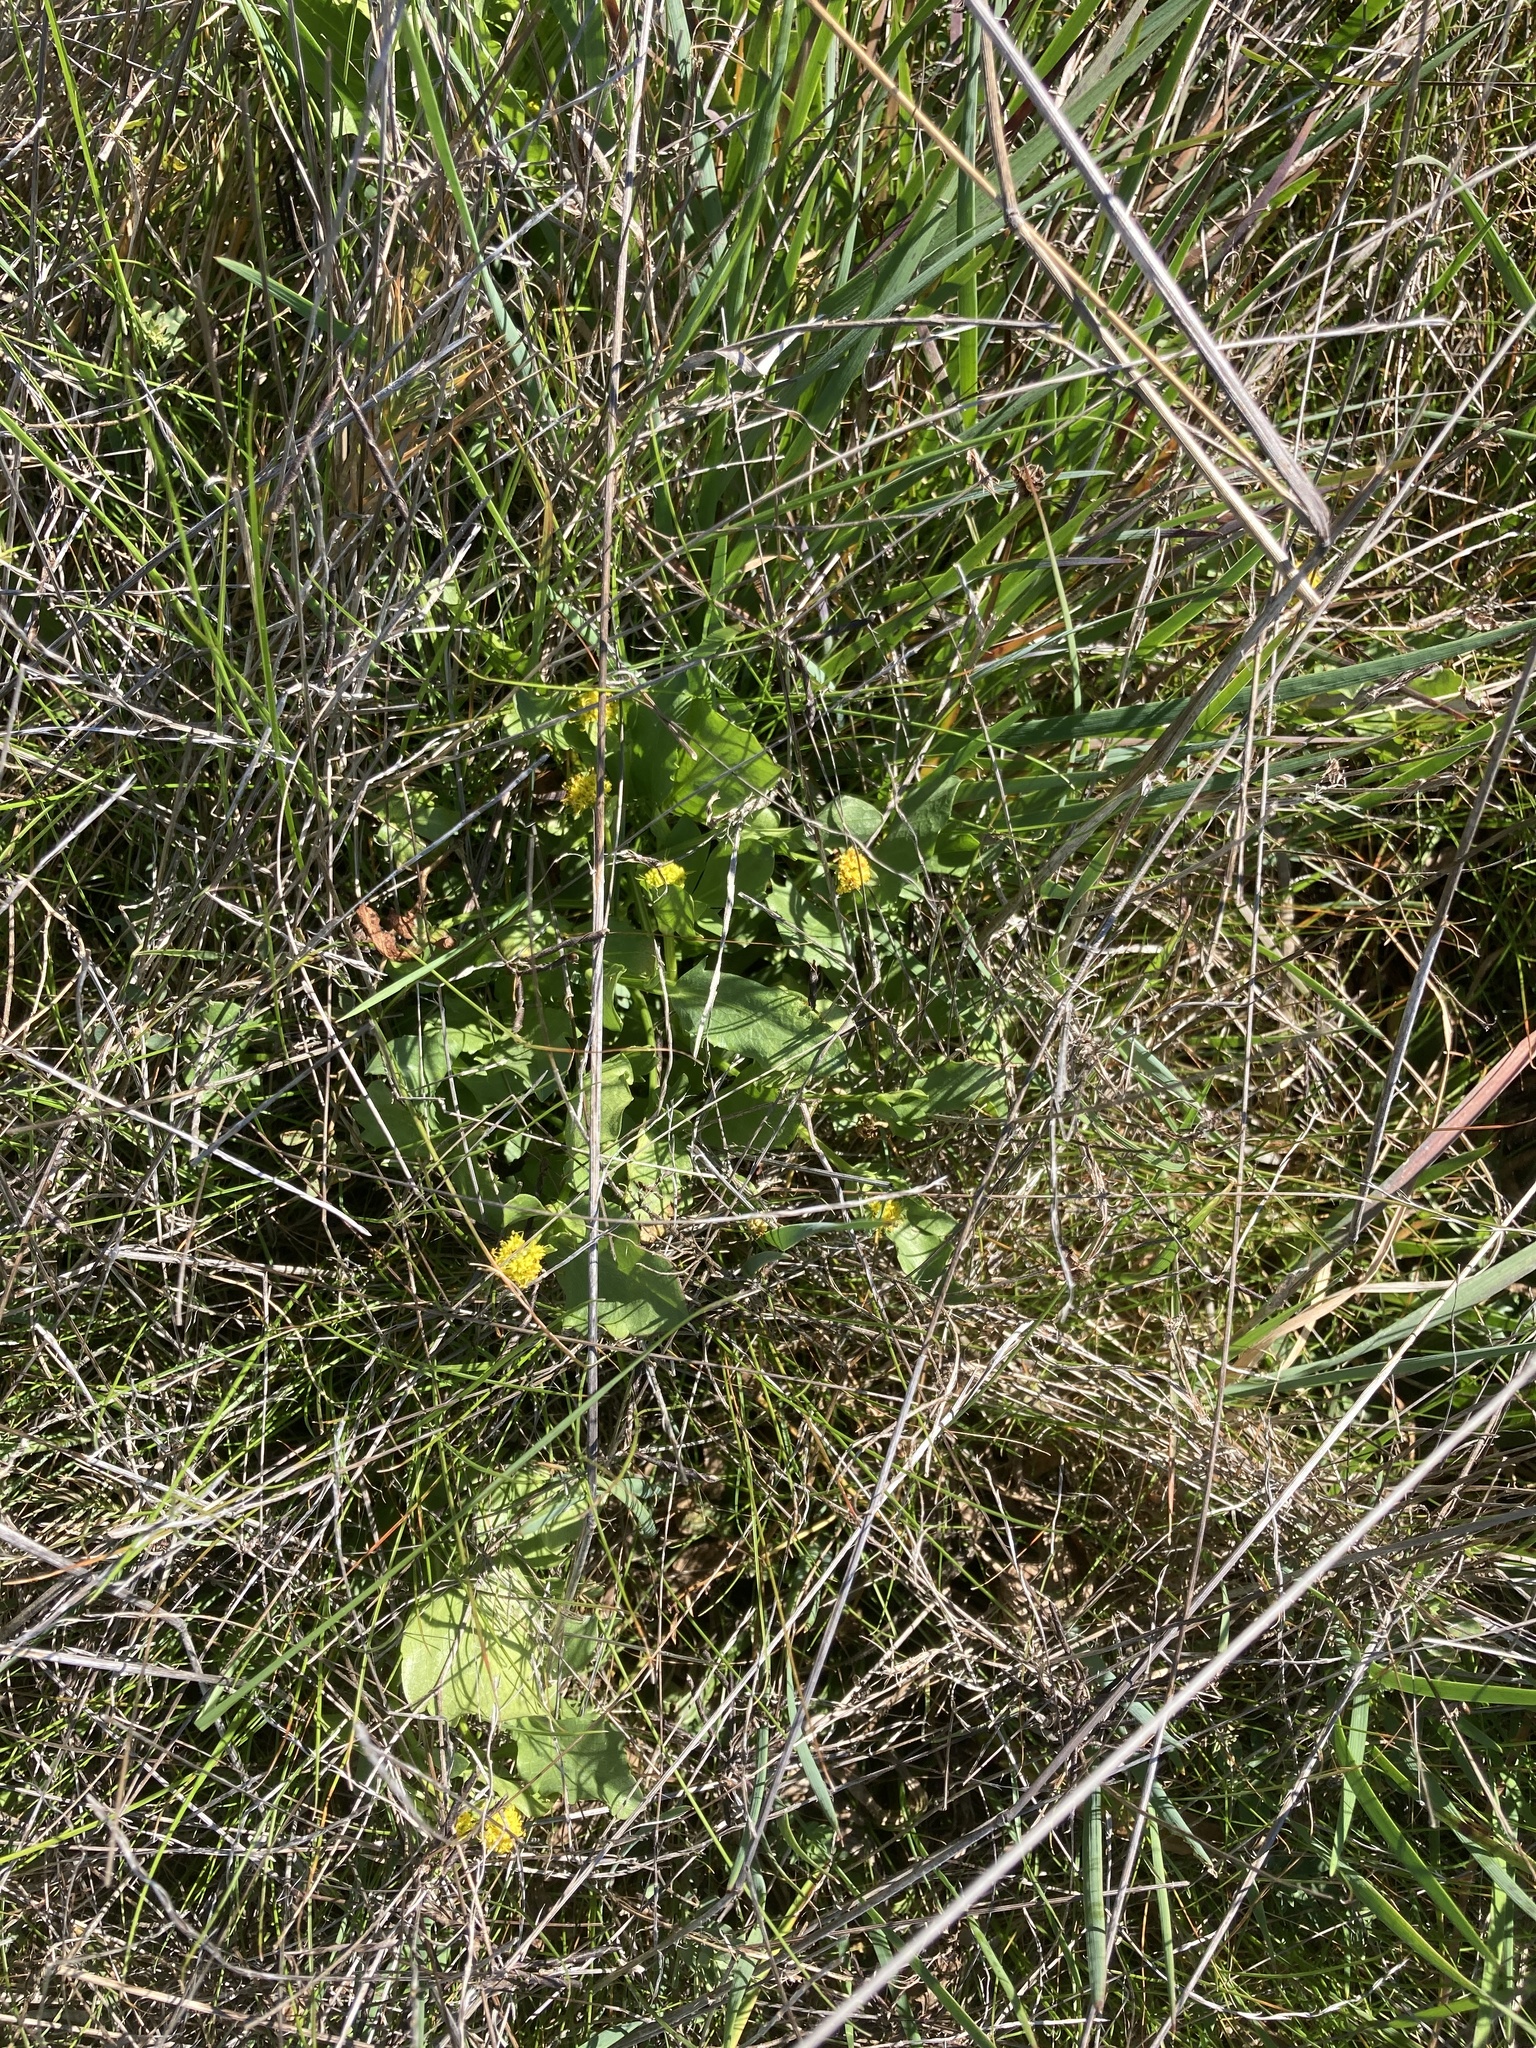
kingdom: Plantae
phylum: Tracheophyta
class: Magnoliopsida
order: Apiales
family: Apiaceae
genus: Sanicula
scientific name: Sanicula maritima
